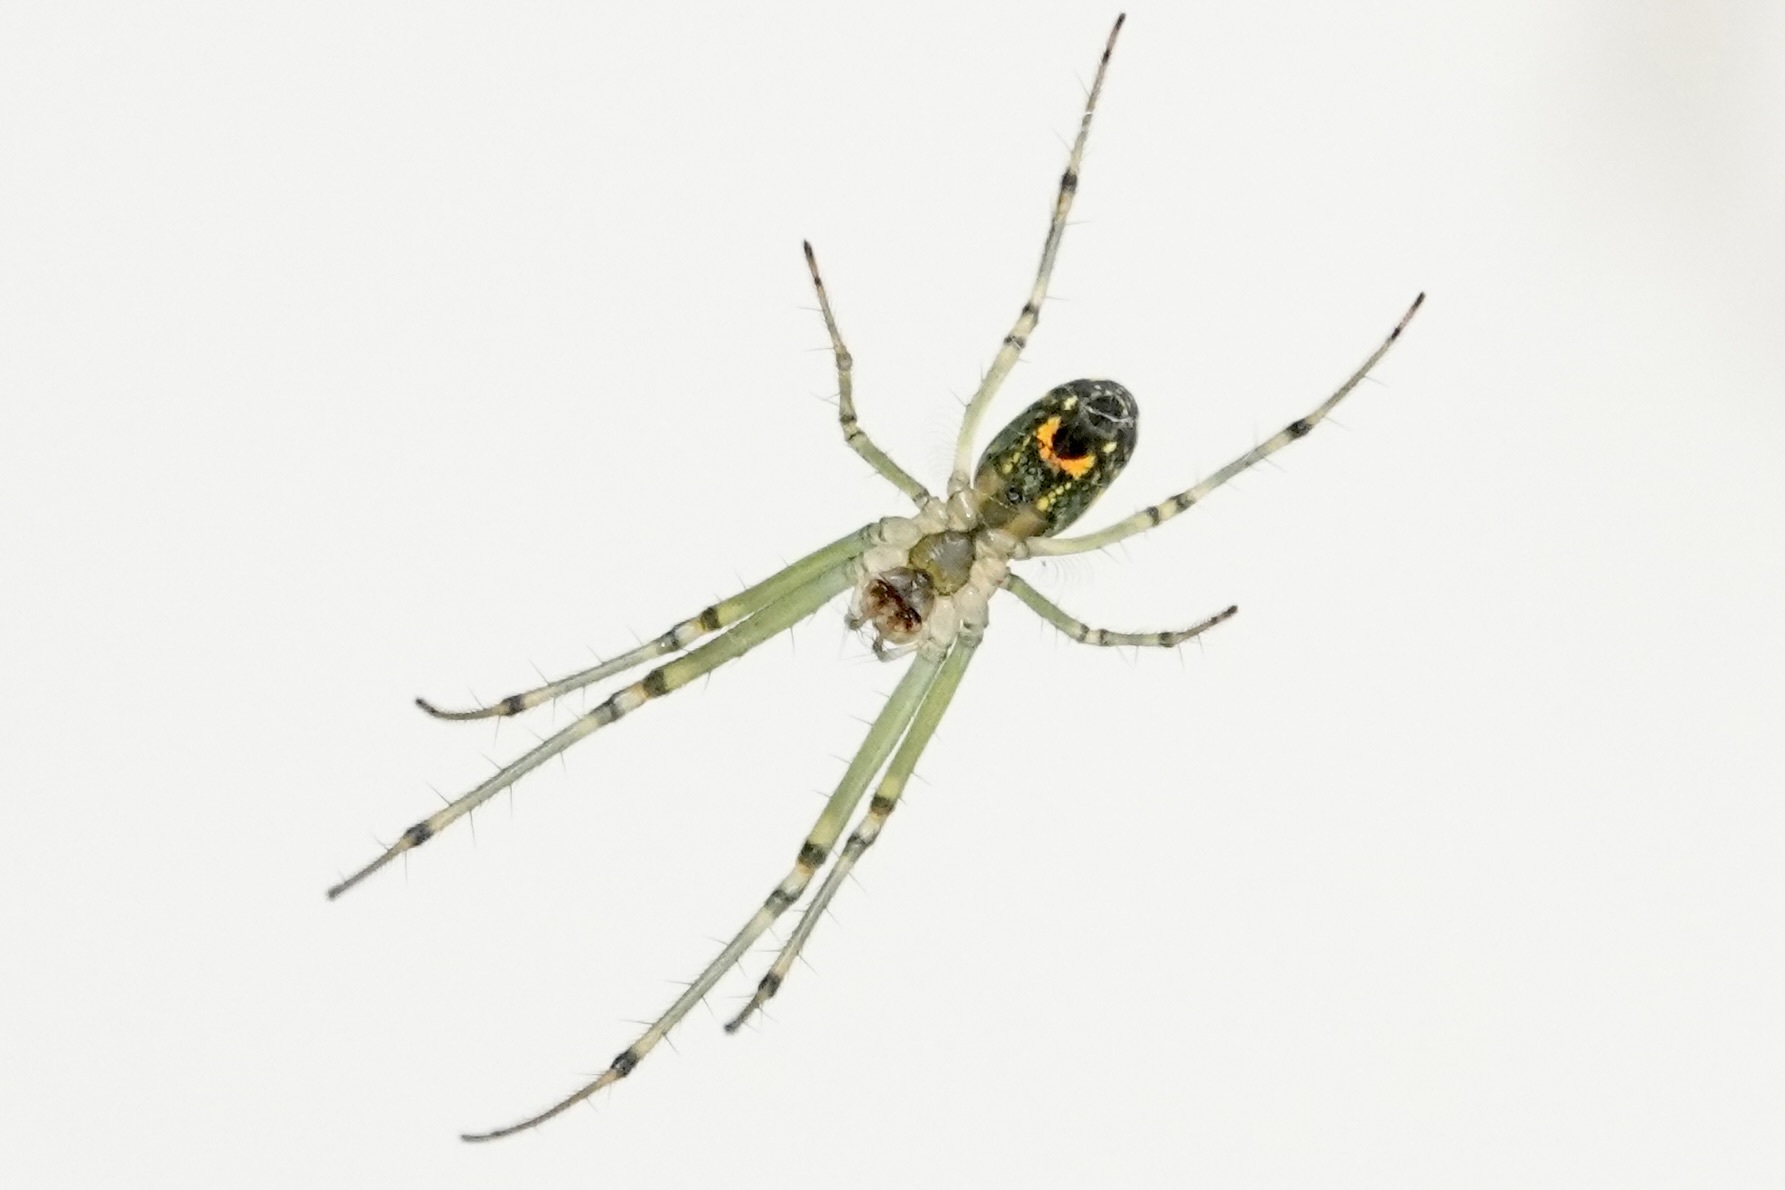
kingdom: Animalia
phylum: Arthropoda
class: Arachnida
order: Araneae
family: Tetragnathidae
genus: Leucauge
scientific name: Leucauge venusta
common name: Longjawed orb weavers
